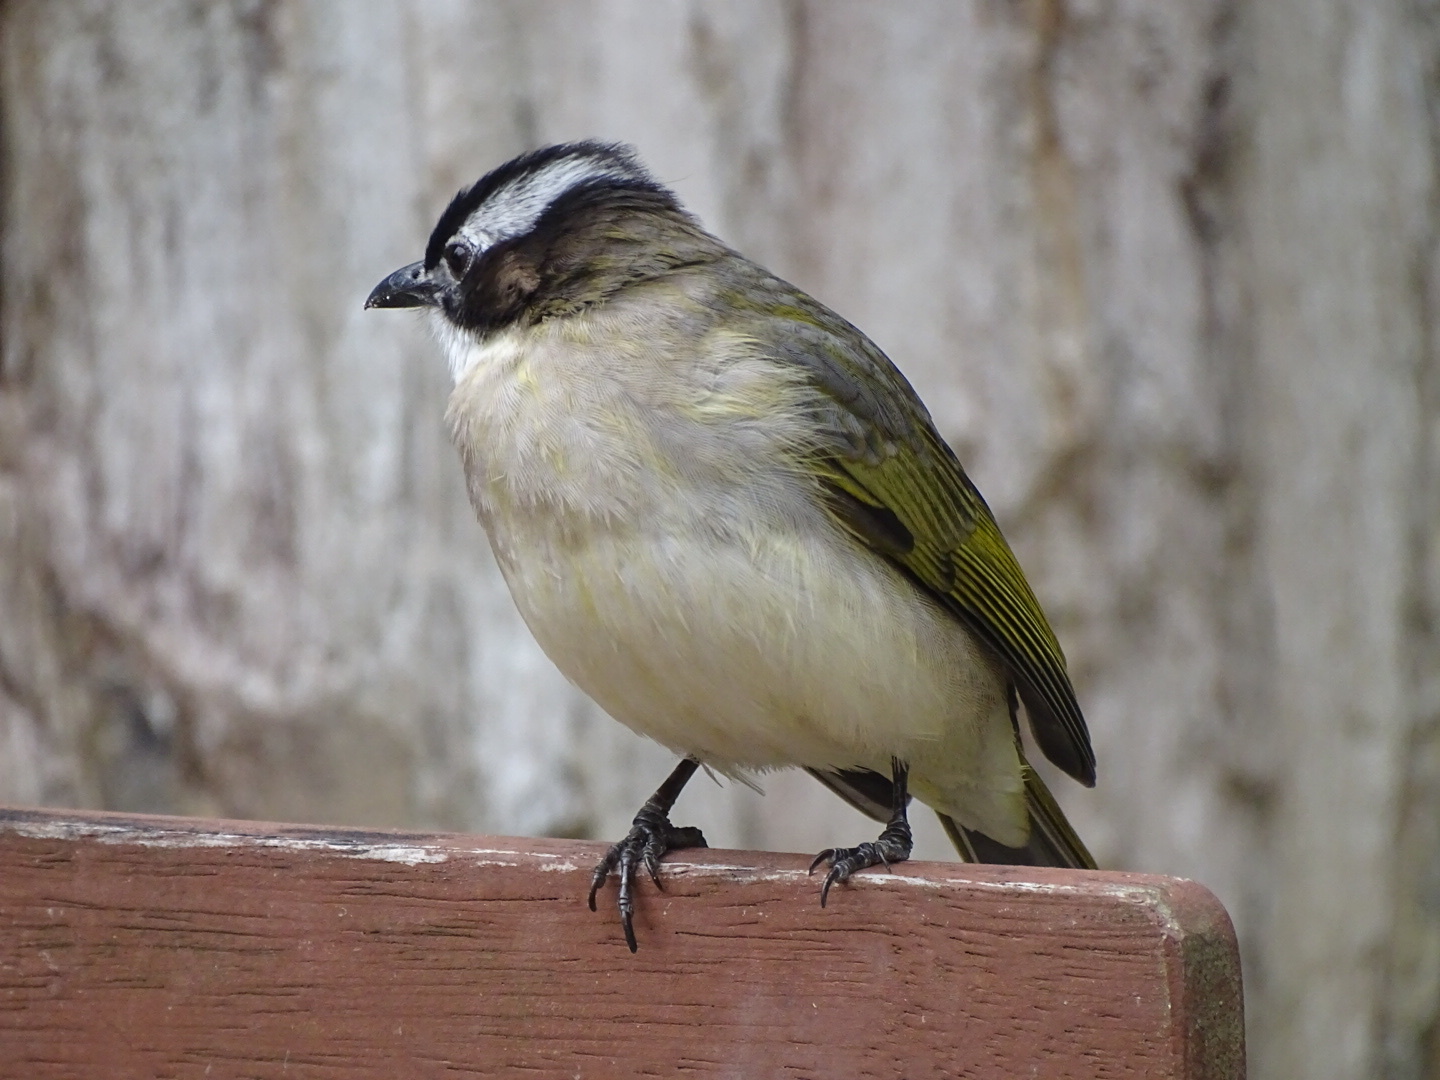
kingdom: Animalia
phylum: Chordata
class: Aves
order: Passeriformes
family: Pycnonotidae
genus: Pycnonotus
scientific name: Pycnonotus sinensis
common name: Light-vented bulbul
